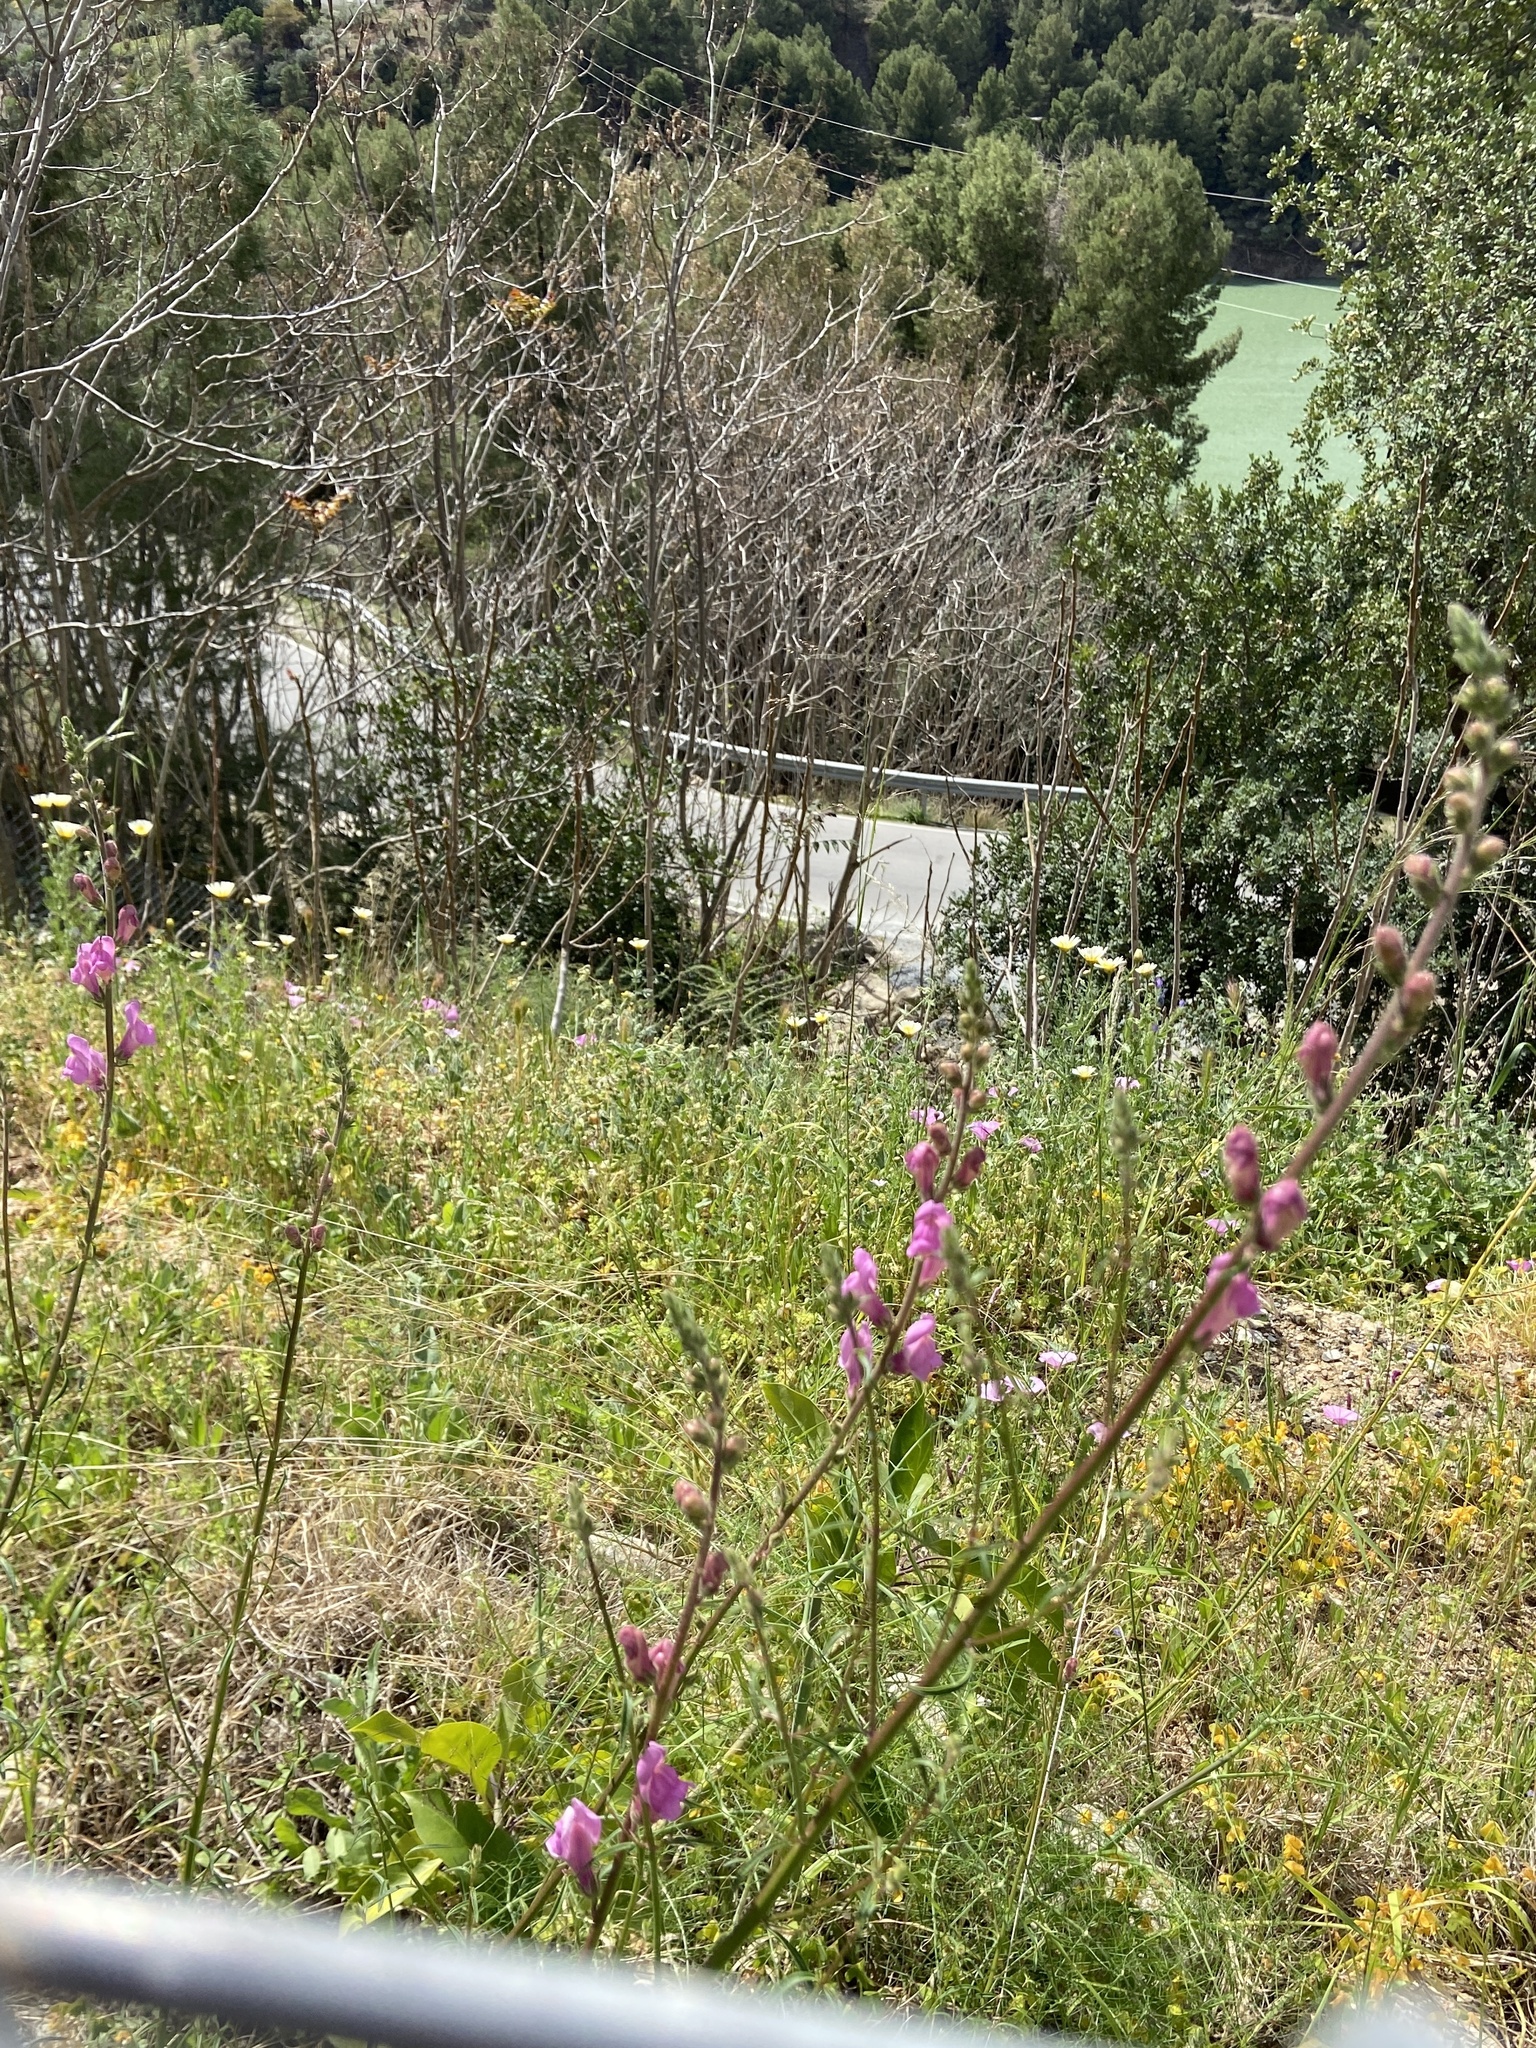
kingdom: Plantae
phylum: Tracheophyta
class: Magnoliopsida
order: Lamiales
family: Plantaginaceae
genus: Antirrhinum
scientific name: Antirrhinum controversum
